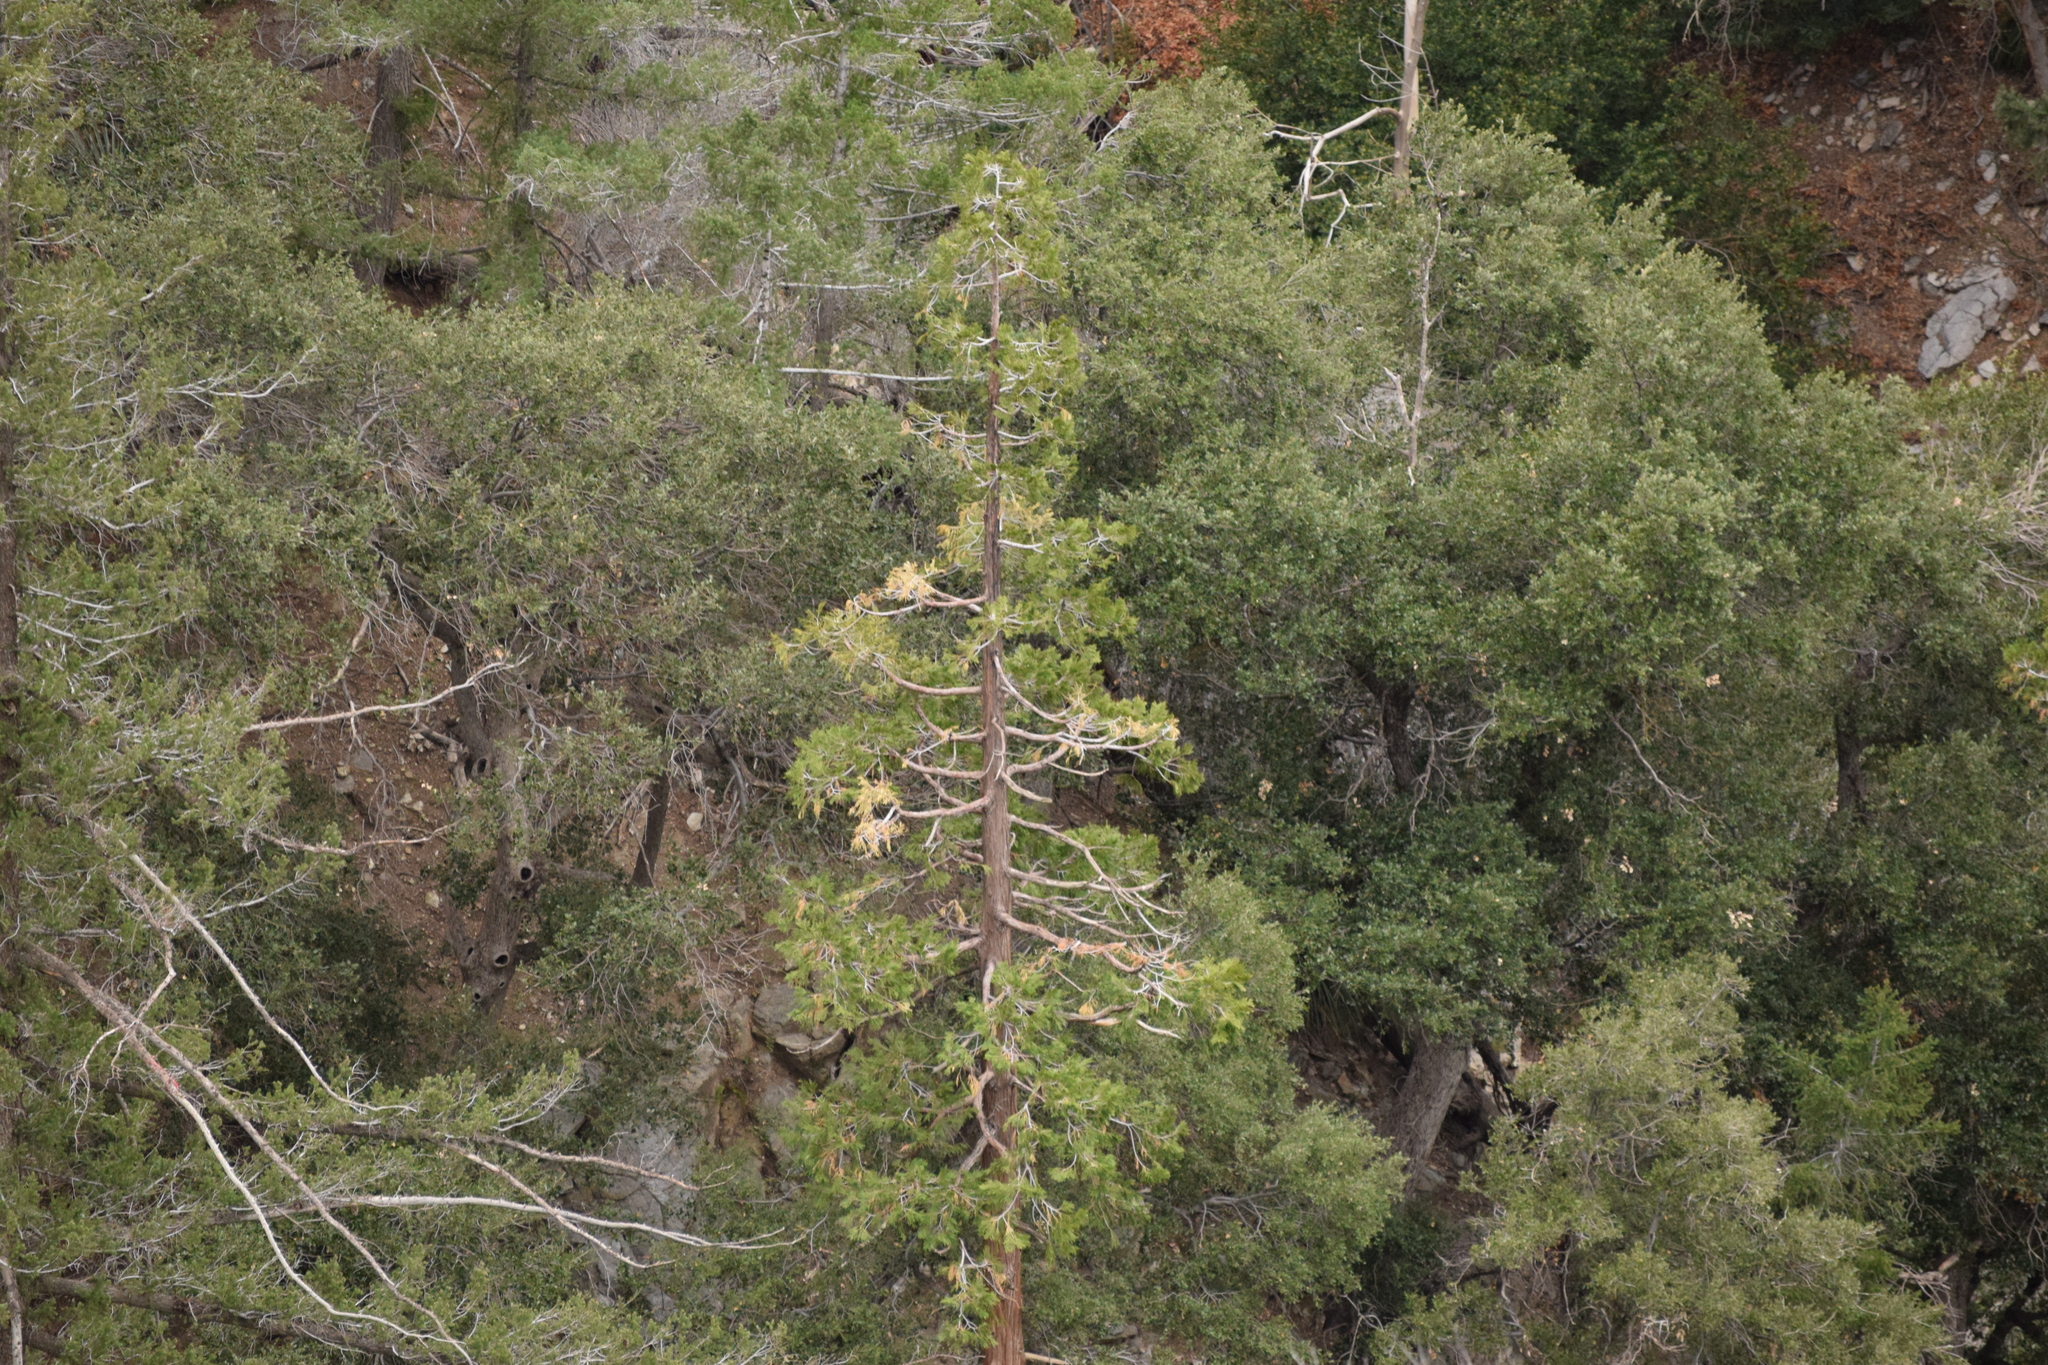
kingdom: Plantae
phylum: Tracheophyta
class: Pinopsida
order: Pinales
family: Cupressaceae
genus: Calocedrus
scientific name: Calocedrus decurrens
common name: Californian incense-cedar
